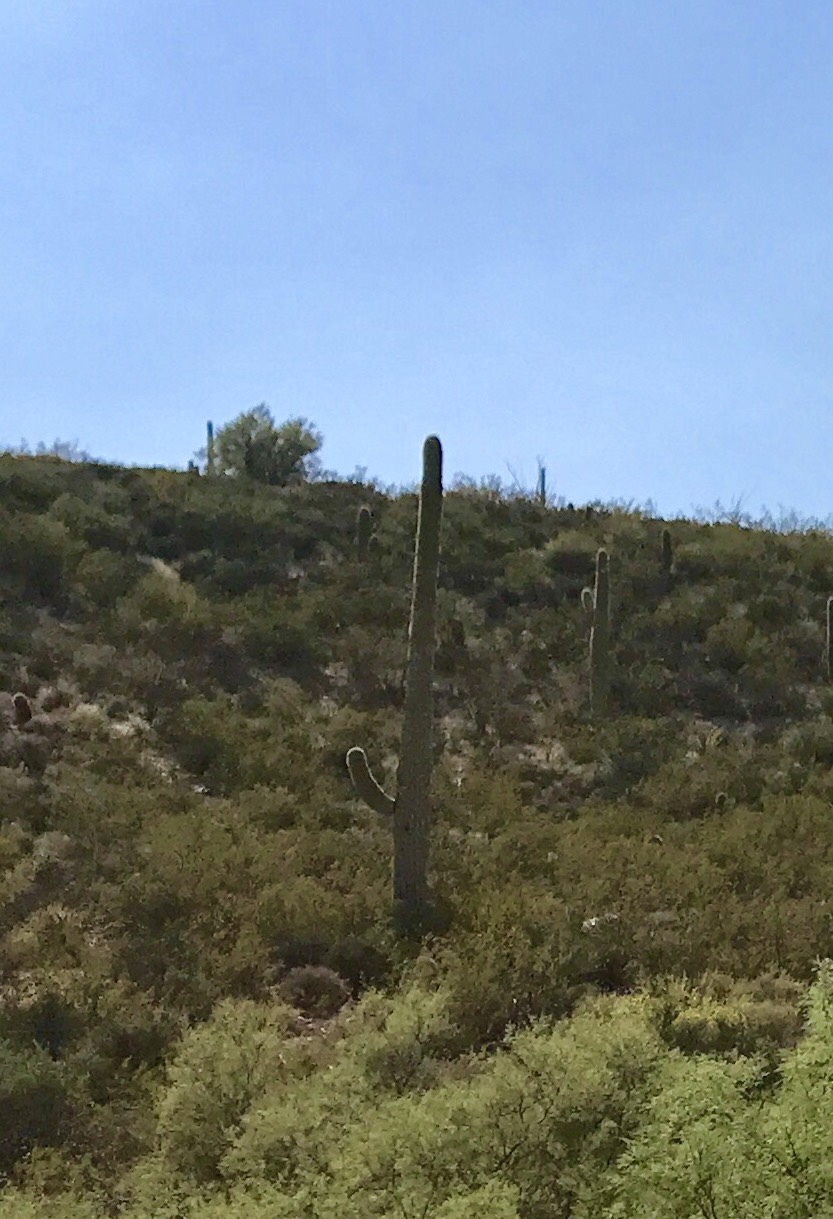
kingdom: Plantae
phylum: Tracheophyta
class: Magnoliopsida
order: Caryophyllales
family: Cactaceae
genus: Carnegiea
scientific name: Carnegiea gigantea
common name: Saguaro
